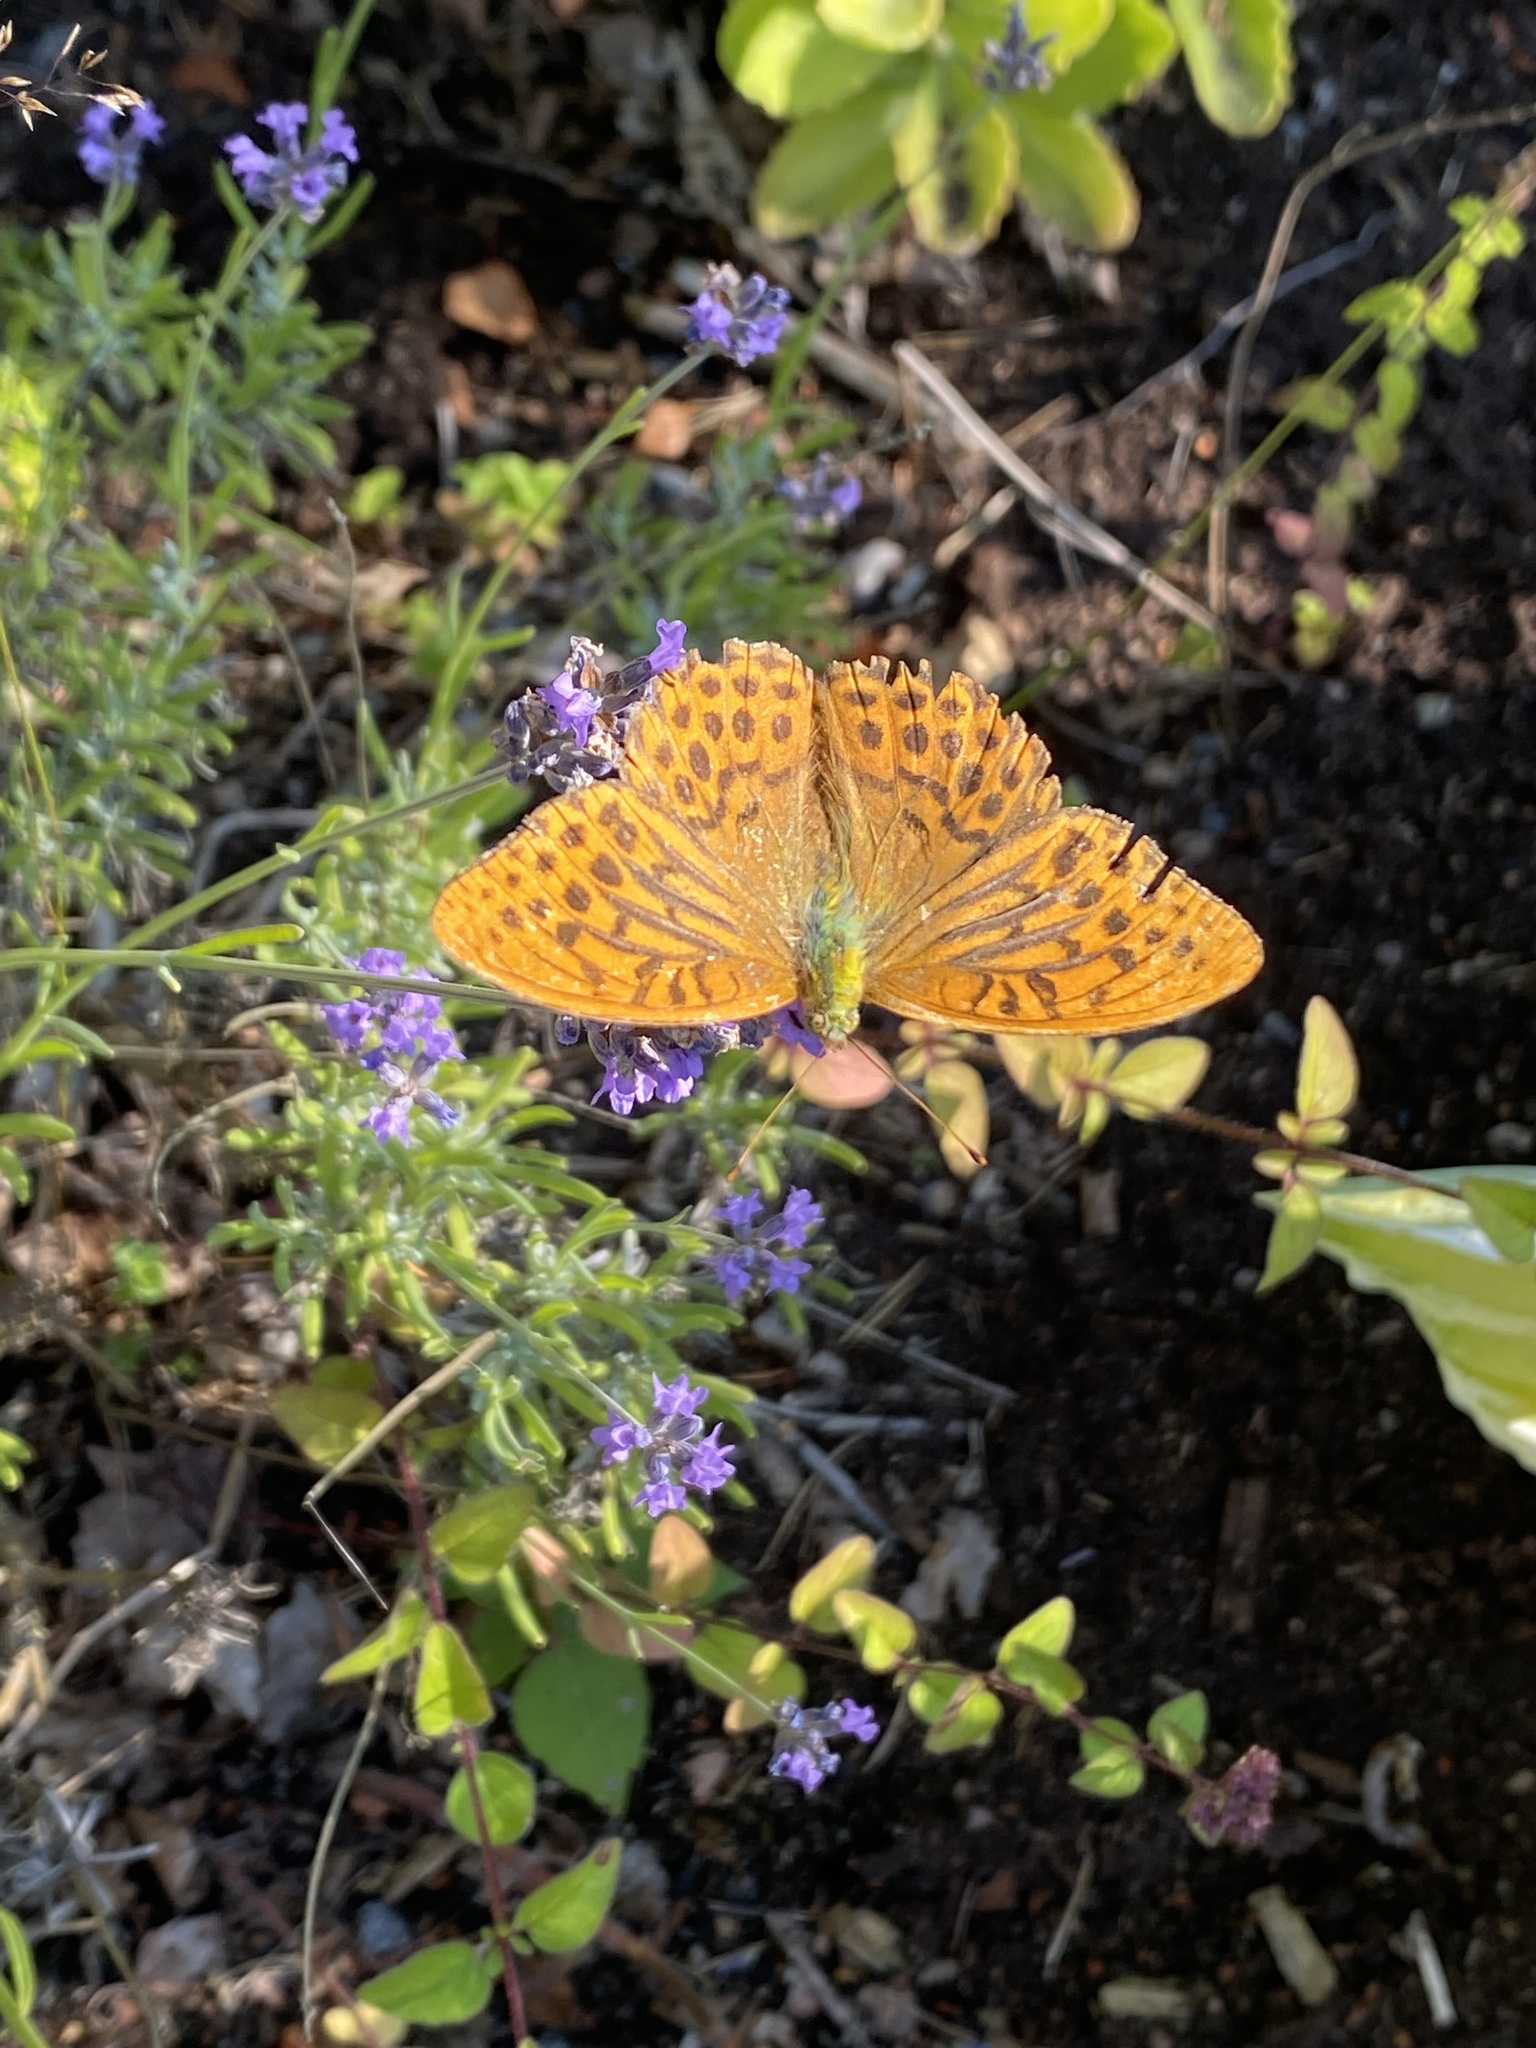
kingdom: Animalia
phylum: Arthropoda
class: Insecta
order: Lepidoptera
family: Nymphalidae
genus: Argynnis
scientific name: Argynnis paphia
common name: Silver-washed fritillary
